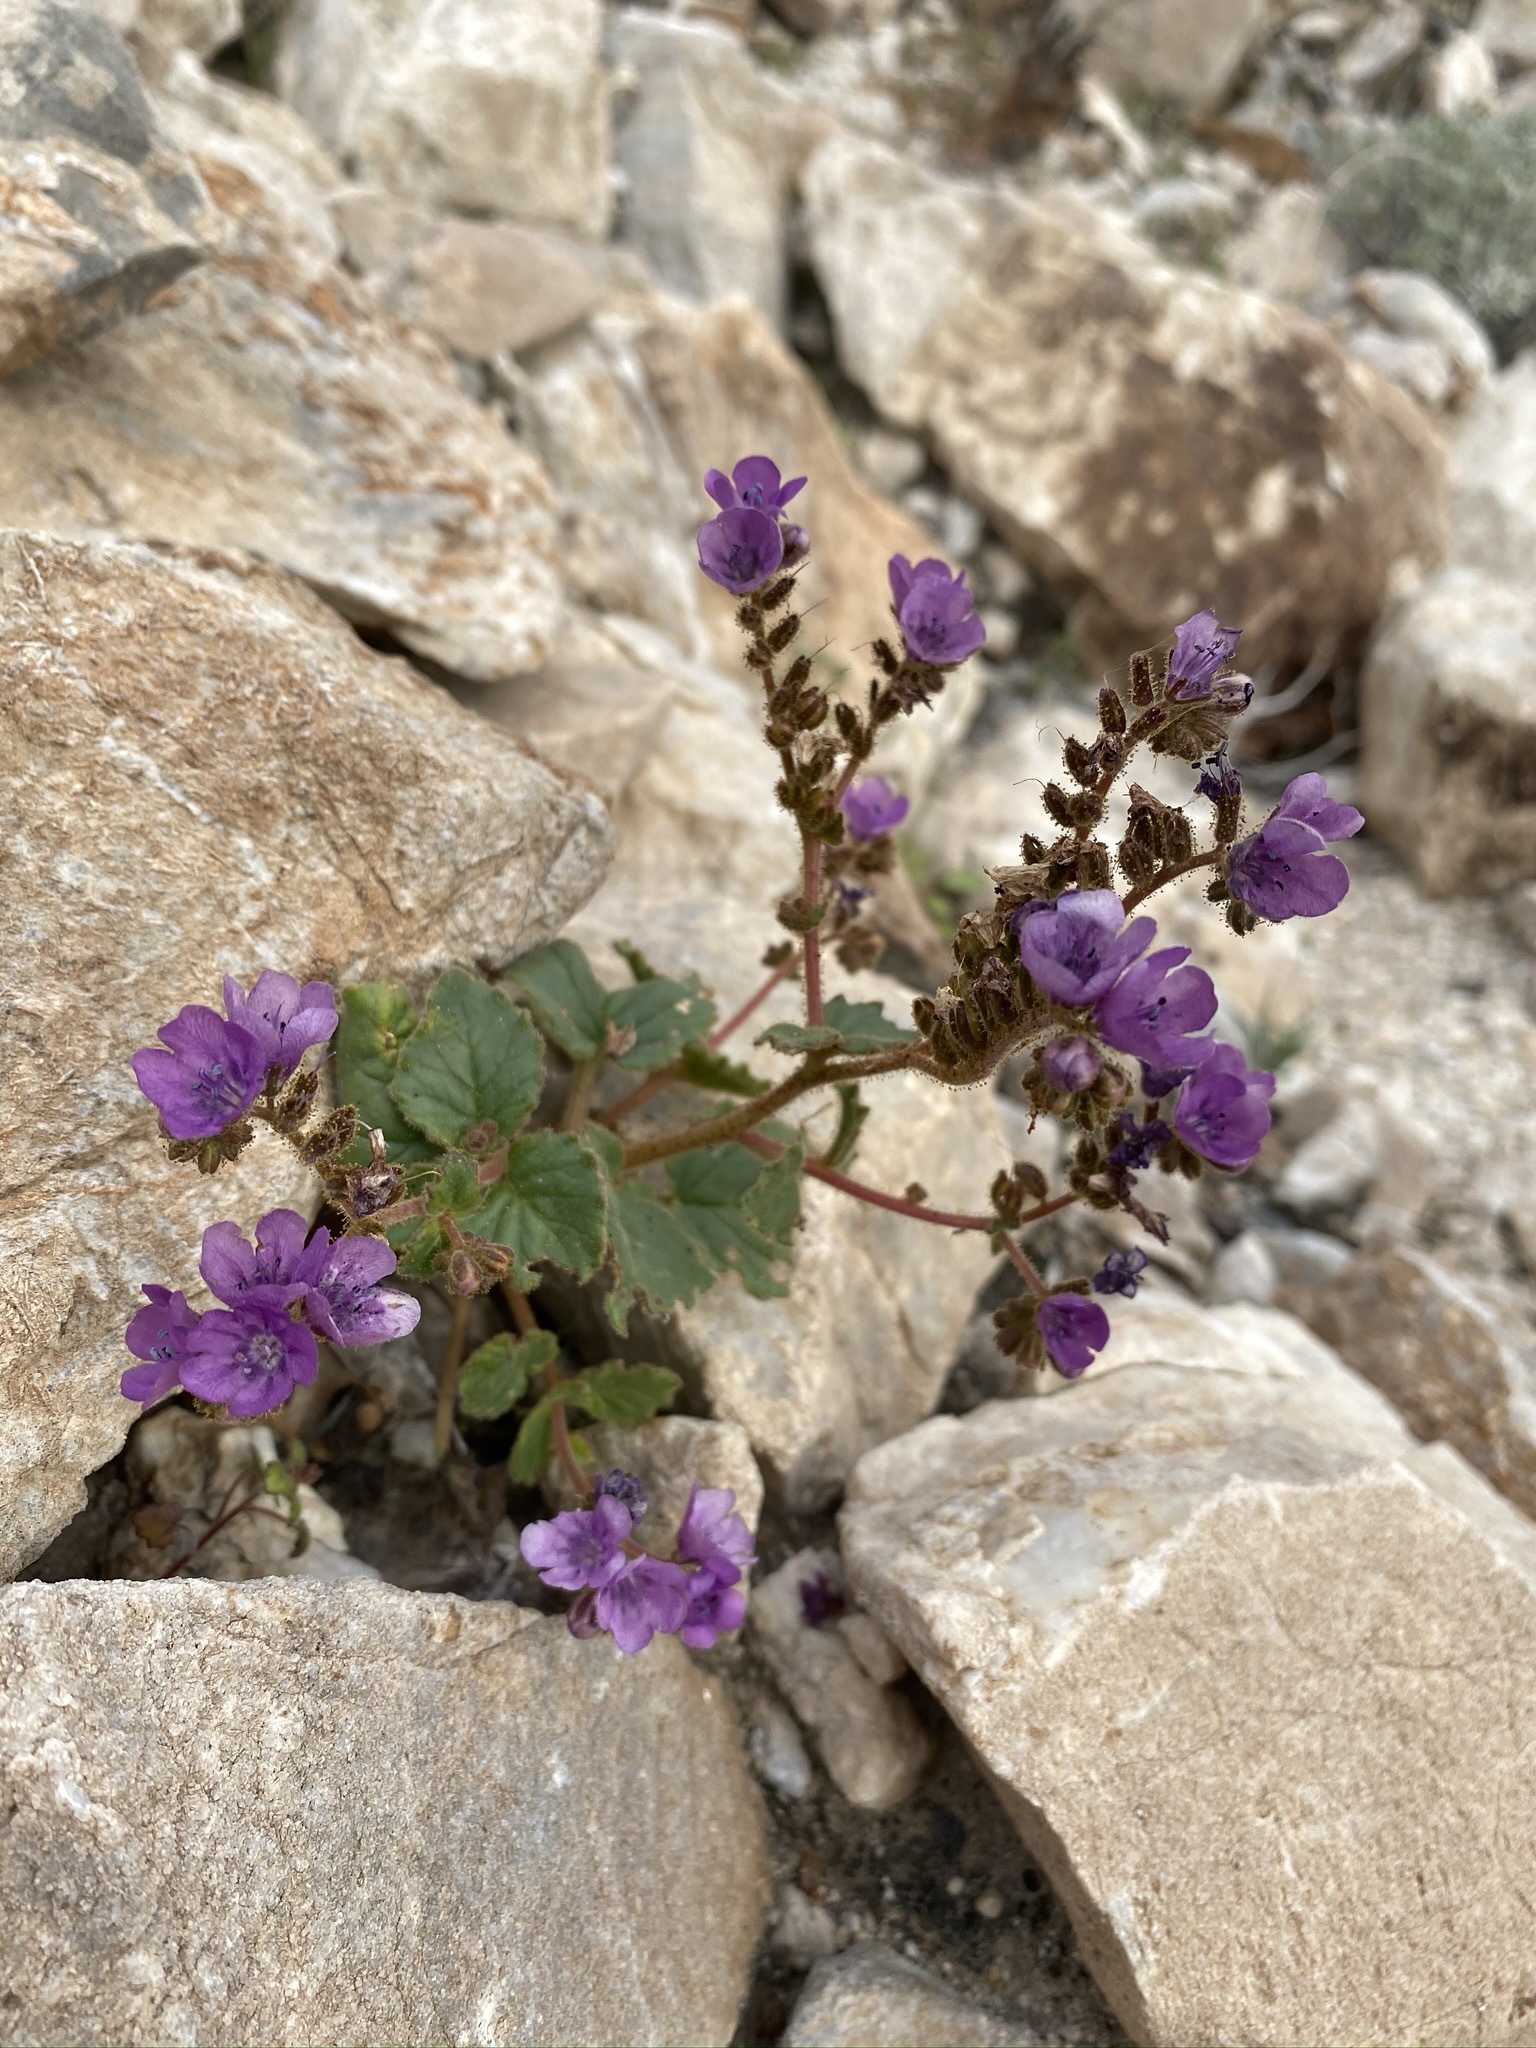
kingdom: Plantae
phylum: Tracheophyta
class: Magnoliopsida
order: Boraginales
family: Hydrophyllaceae
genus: Phacelia
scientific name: Phacelia calthifolia
